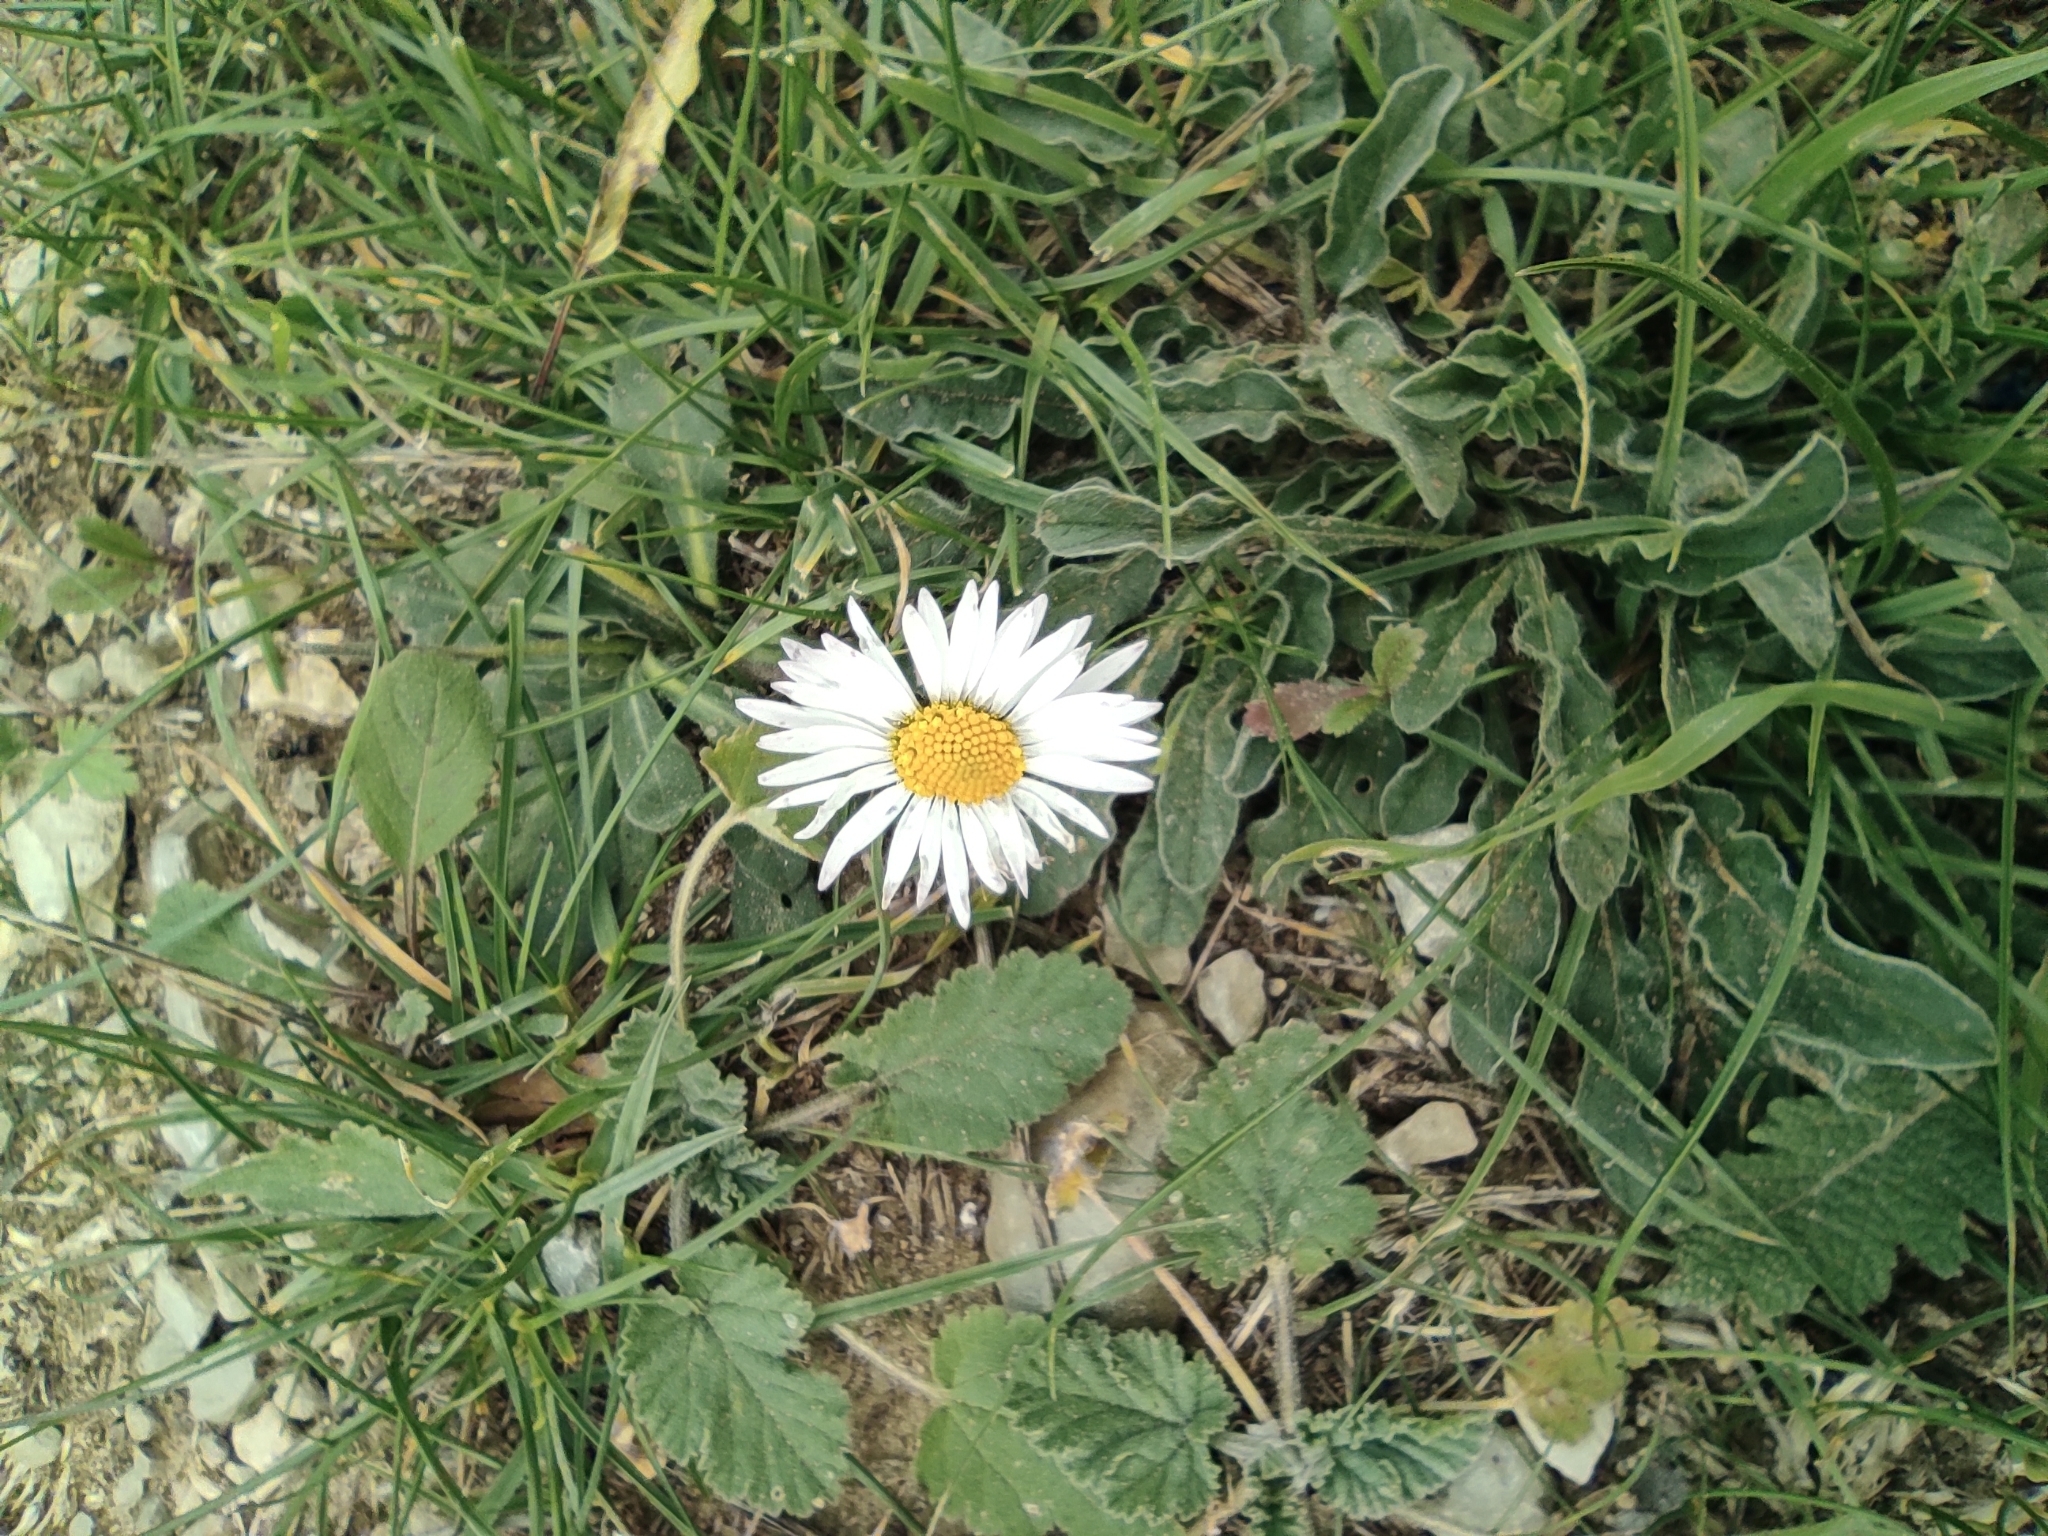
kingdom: Plantae
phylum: Tracheophyta
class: Magnoliopsida
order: Asterales
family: Asteraceae
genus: Bellis
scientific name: Bellis sylvestris
